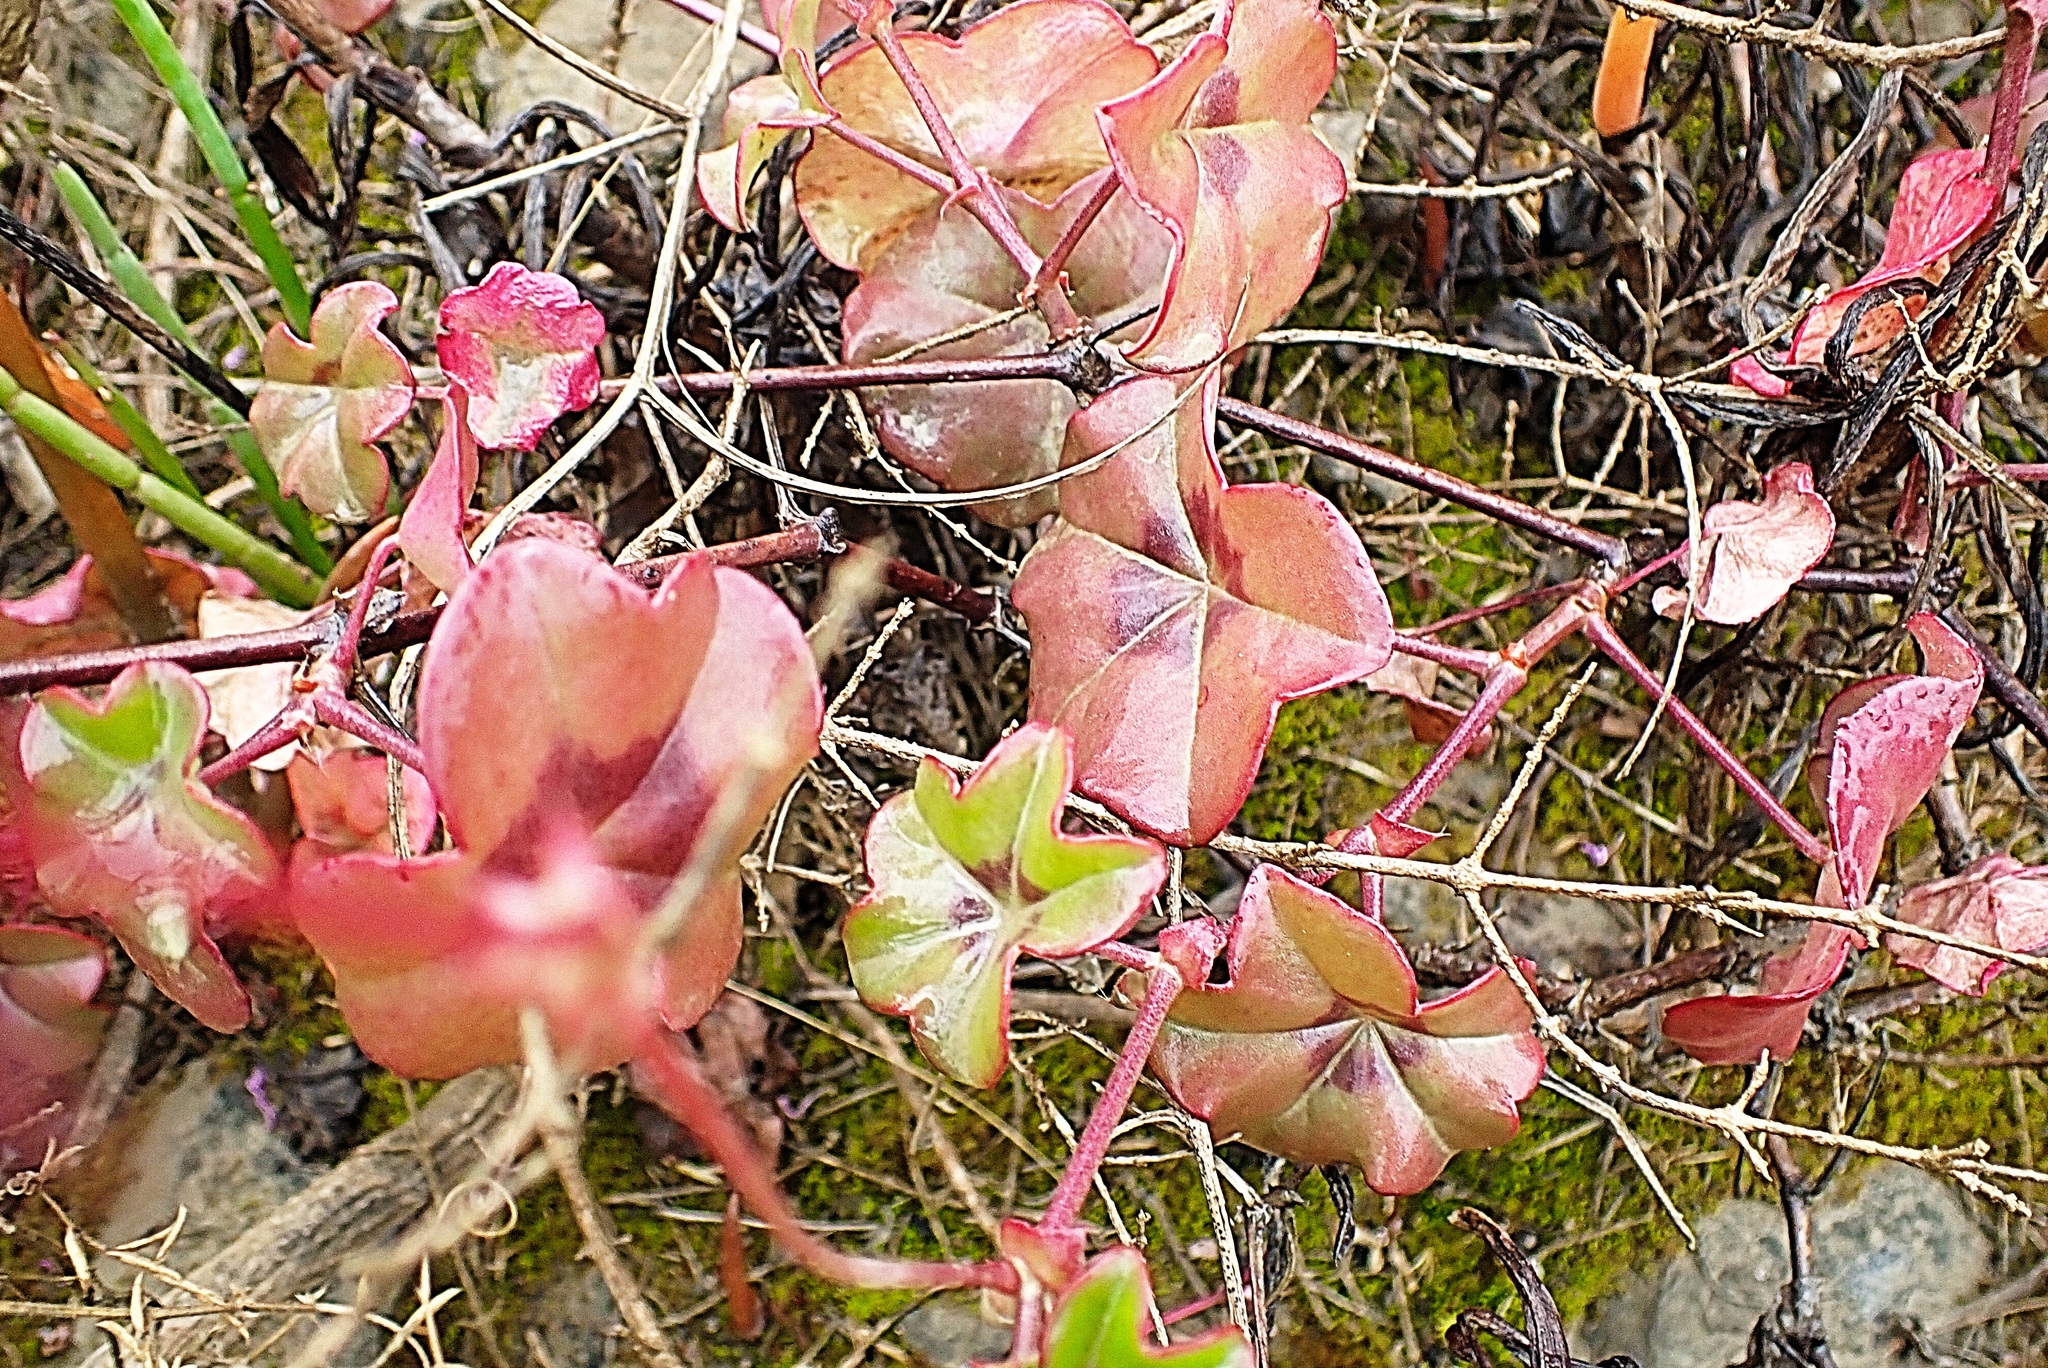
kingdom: Plantae
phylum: Tracheophyta
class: Magnoliopsida
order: Geraniales
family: Geraniaceae
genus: Pelargonium
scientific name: Pelargonium peltatum
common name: Ivyleaf geranium
